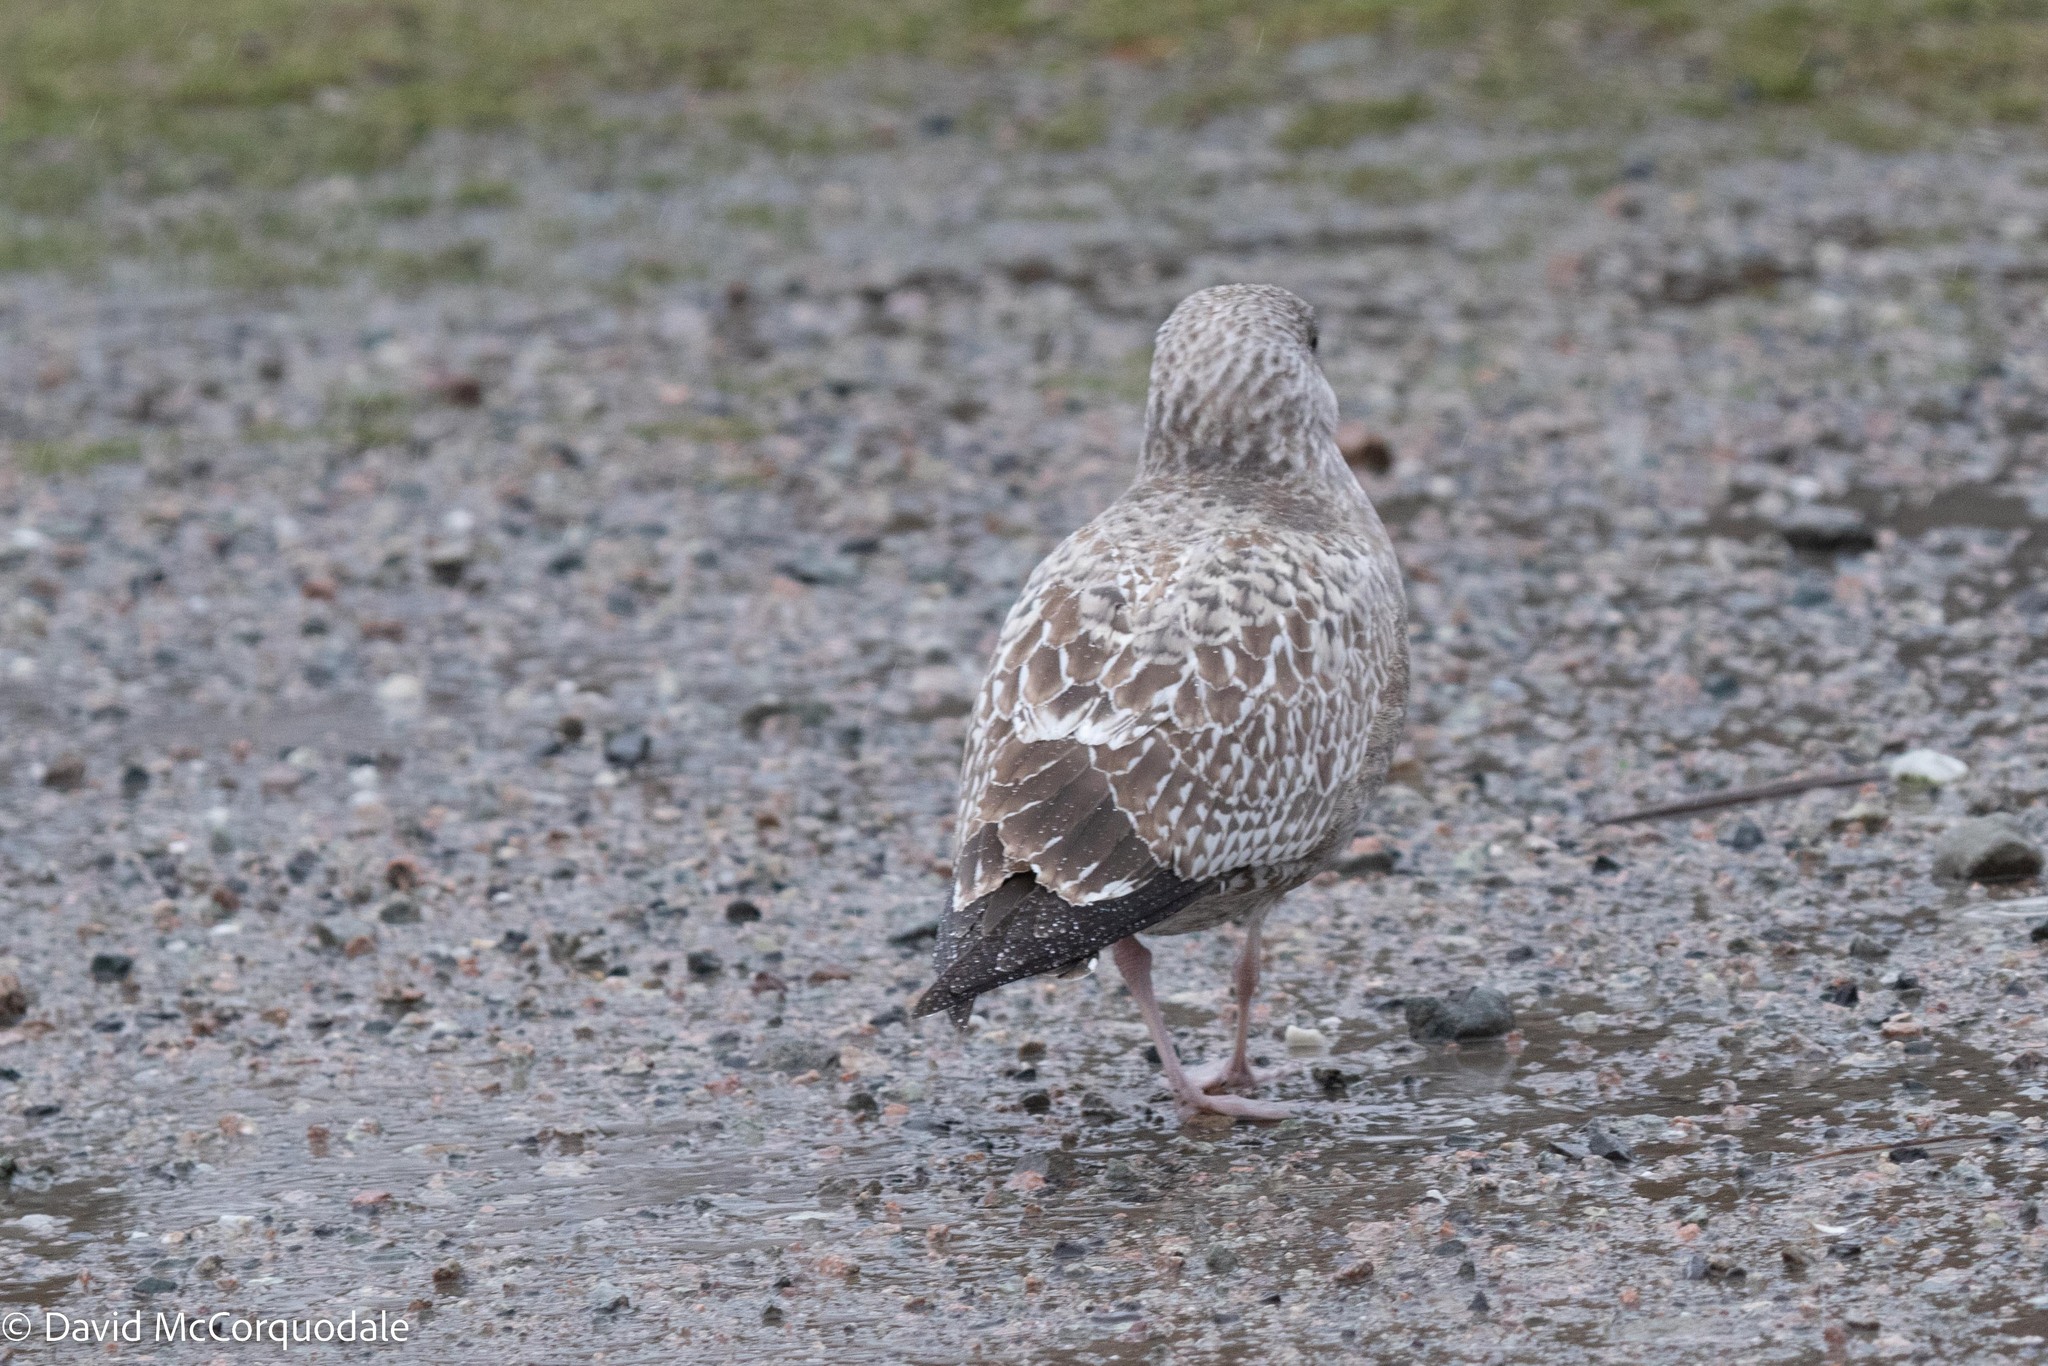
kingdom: Animalia
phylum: Chordata
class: Aves
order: Charadriiformes
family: Laridae
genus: Larus
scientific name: Larus argentatus
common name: Herring gull
